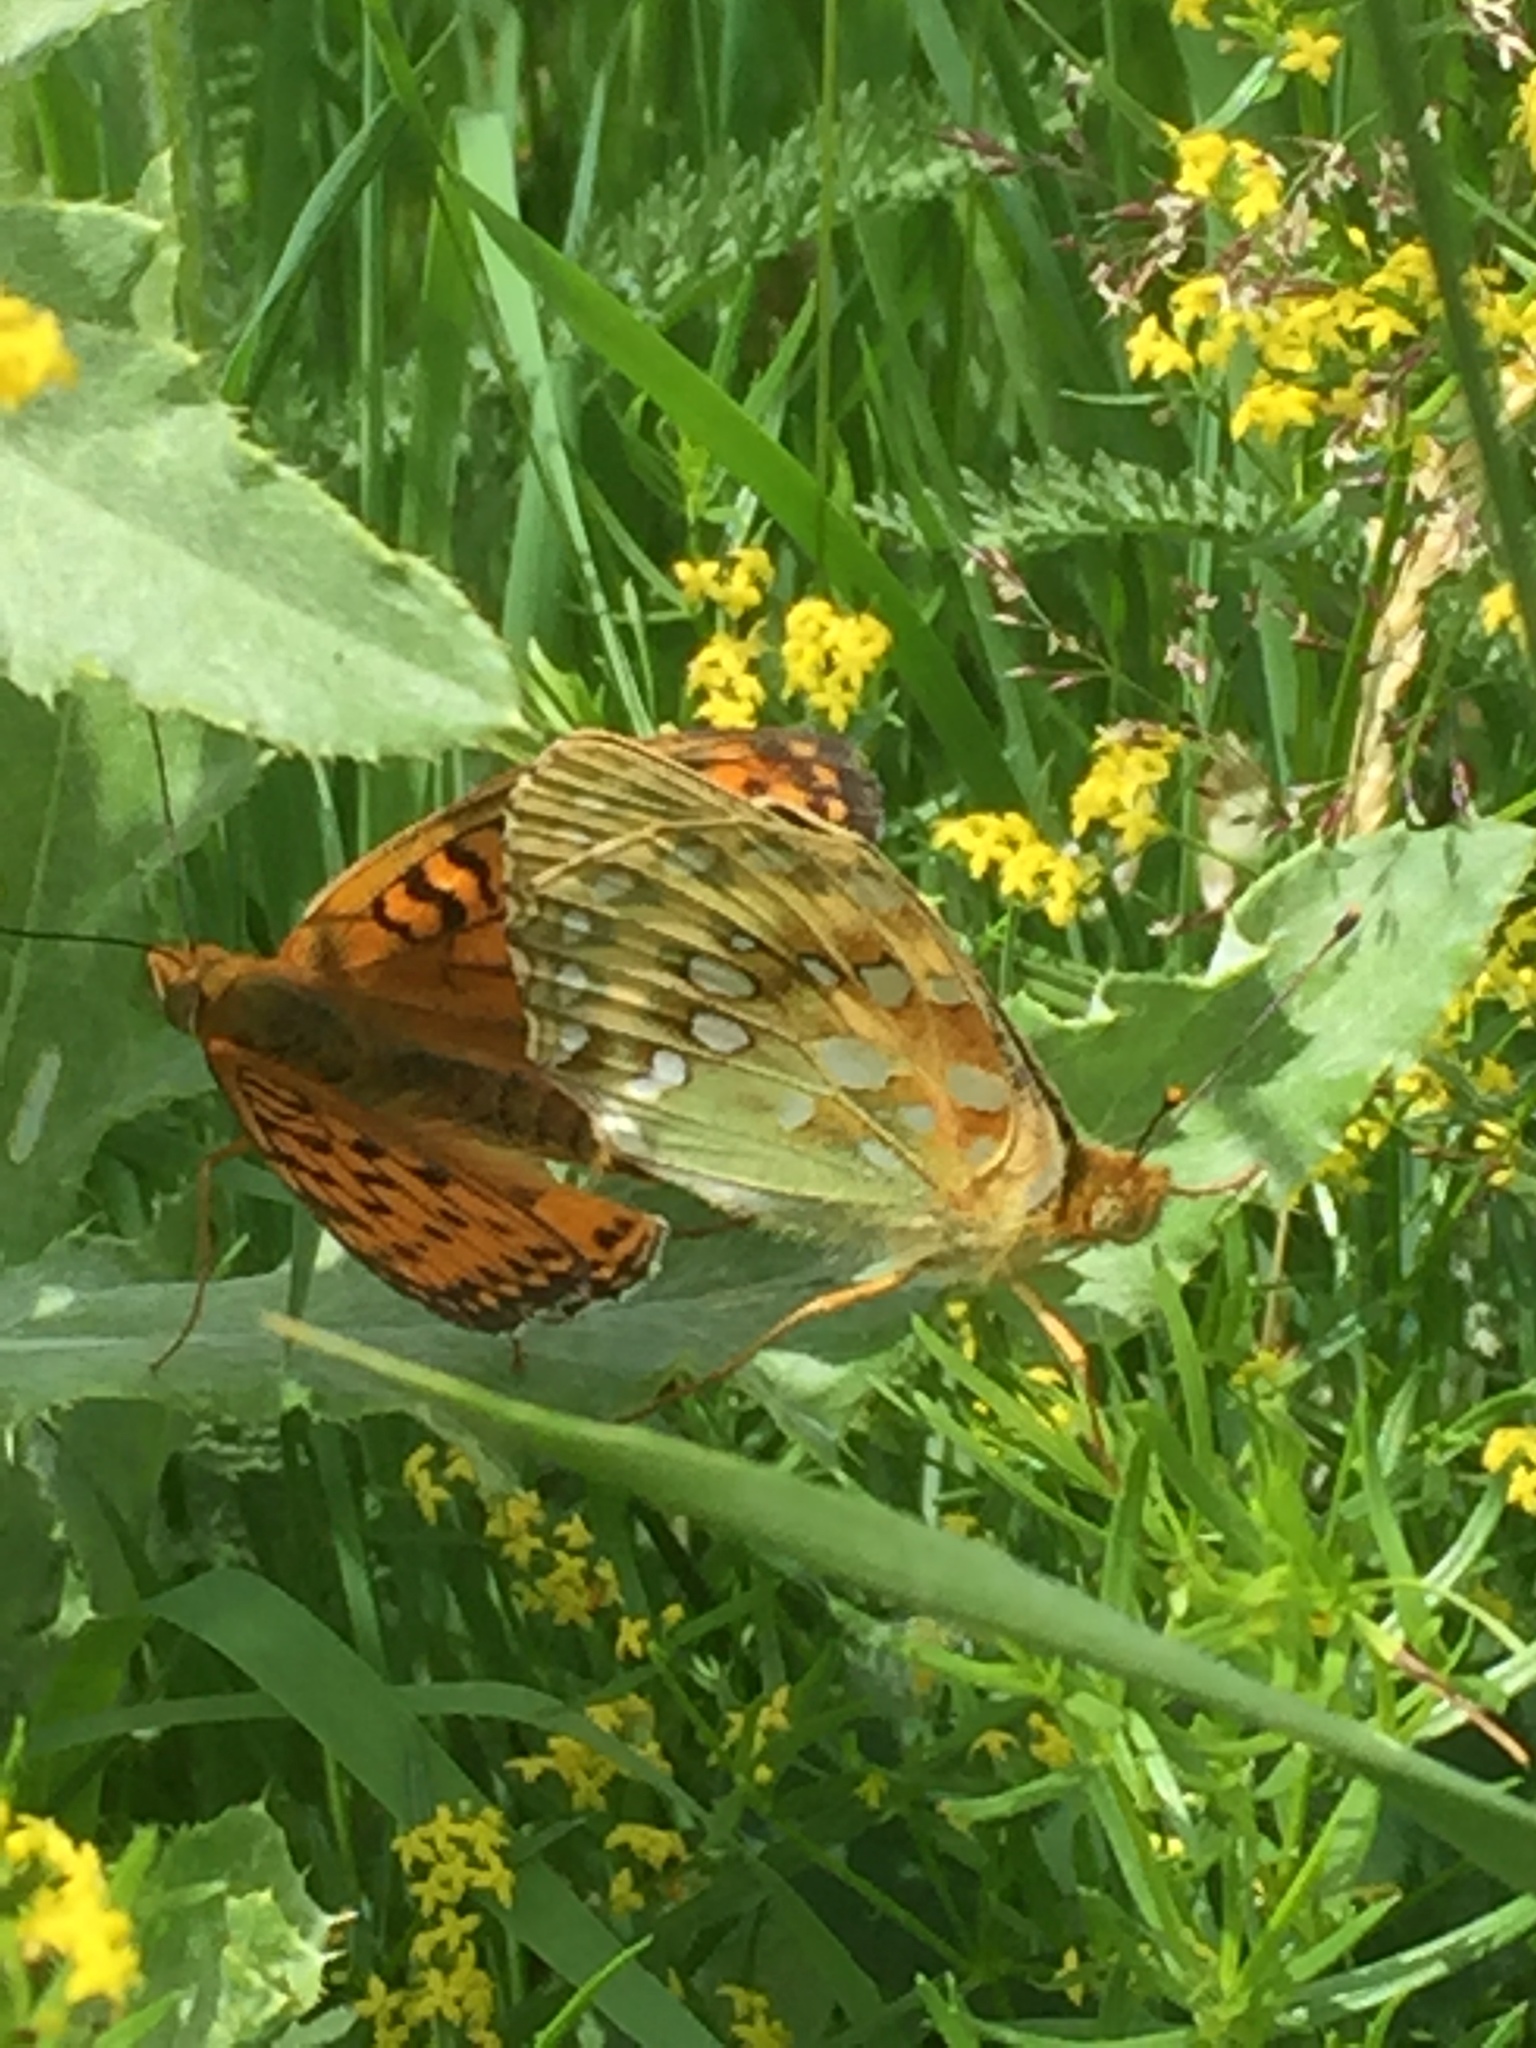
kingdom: Animalia
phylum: Arthropoda
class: Insecta
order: Lepidoptera
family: Nymphalidae
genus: Speyeria
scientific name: Speyeria aglaja
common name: Dark green fritillary
